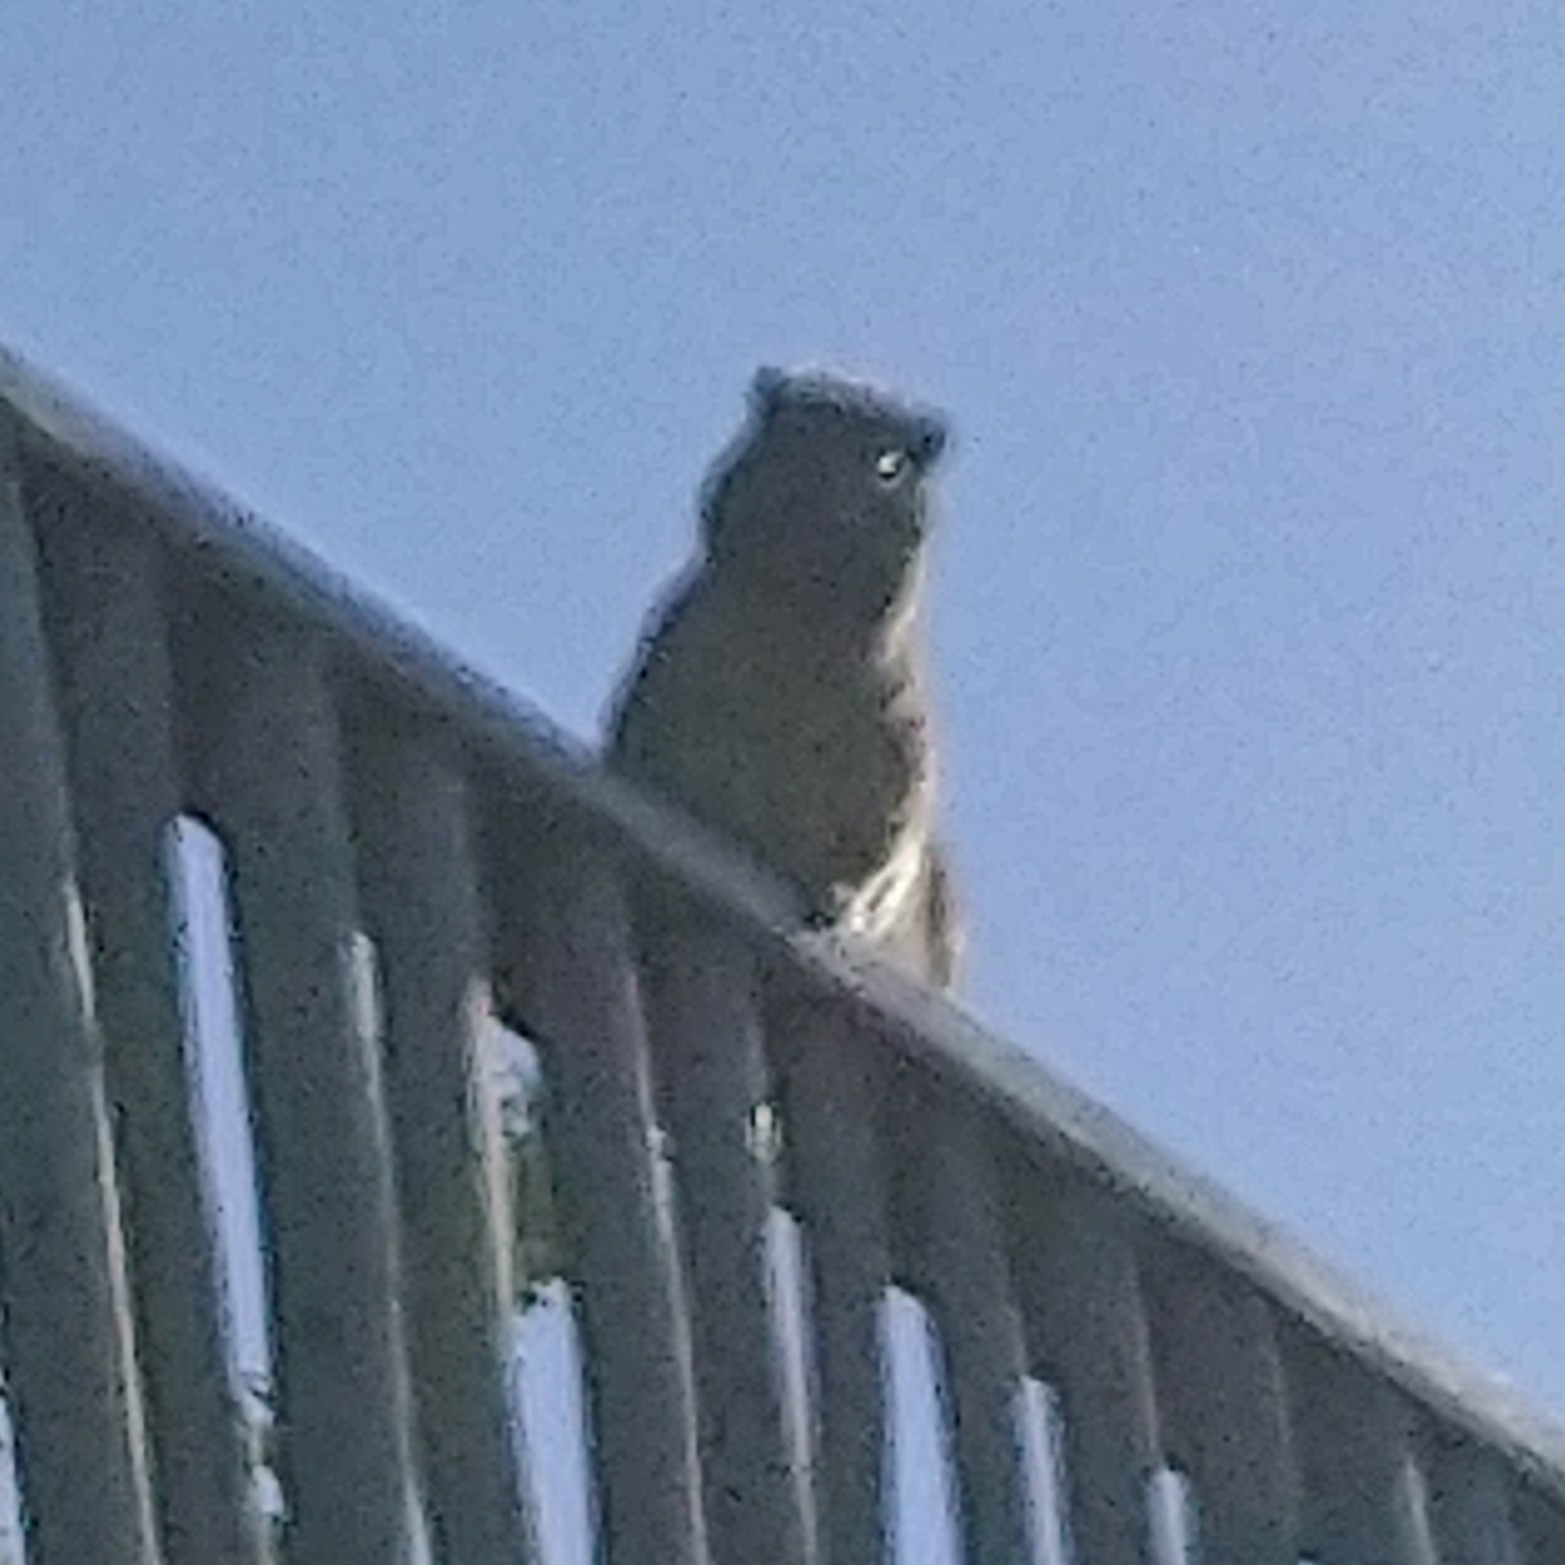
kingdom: Animalia
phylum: Chordata
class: Mammalia
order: Hyracoidea
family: Procaviidae
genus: Procavia
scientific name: Procavia capensis
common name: Rock hyrax
